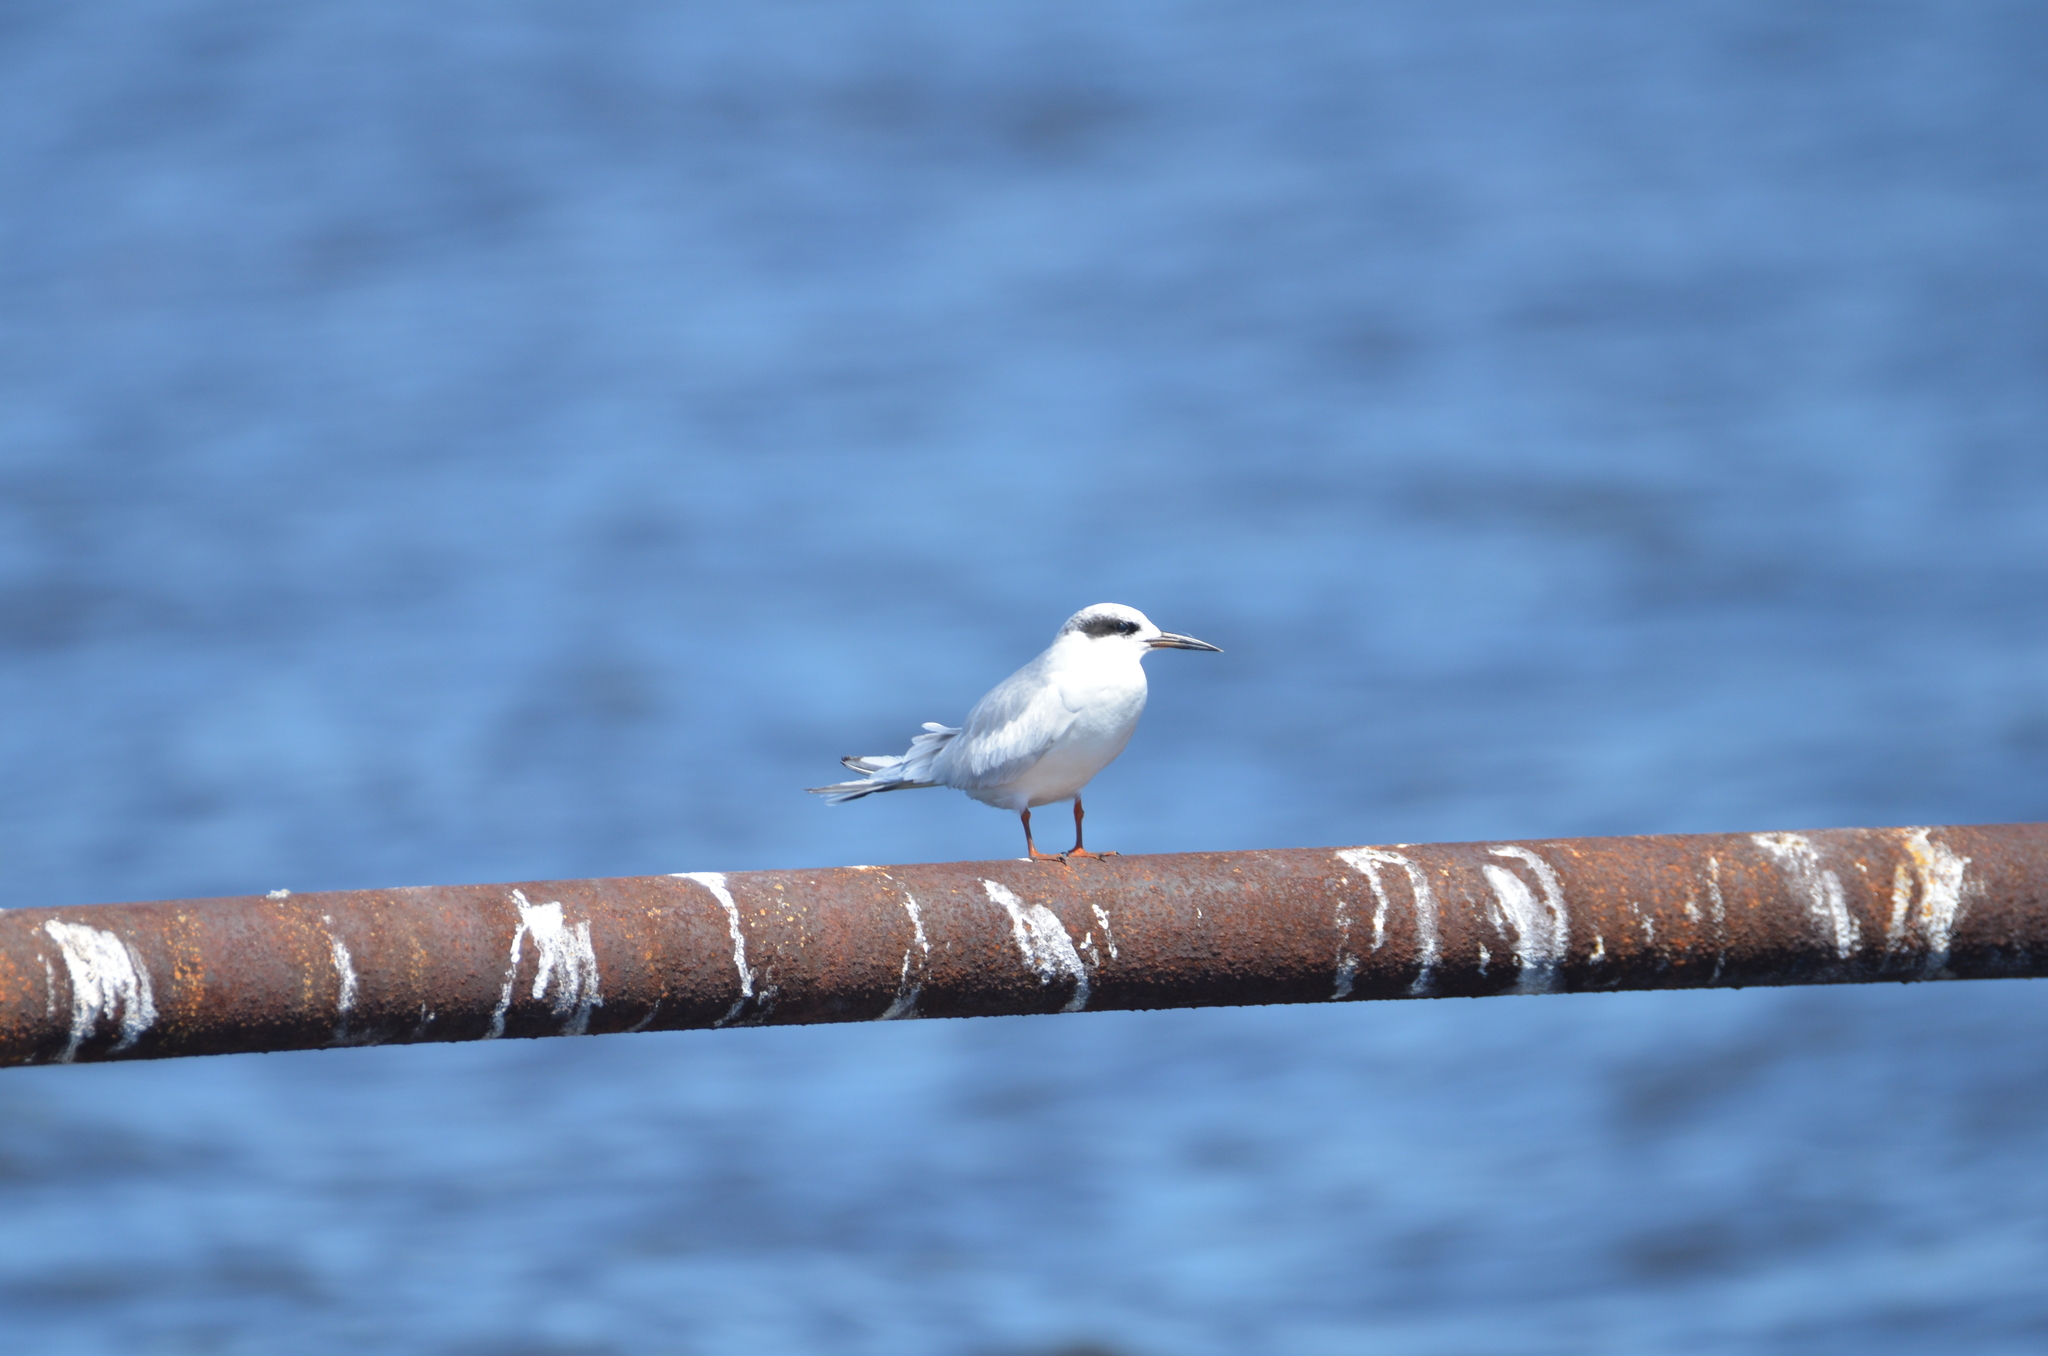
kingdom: Animalia
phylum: Chordata
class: Aves
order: Charadriiformes
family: Laridae
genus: Sterna
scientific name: Sterna forsteri
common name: Forster's tern
